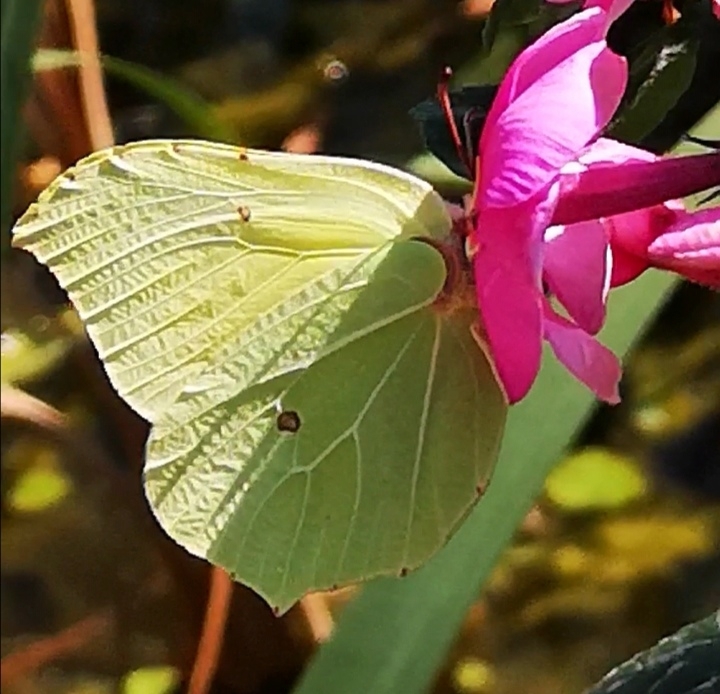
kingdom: Animalia
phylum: Arthropoda
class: Insecta
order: Lepidoptera
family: Pieridae
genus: Gonepteryx
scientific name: Gonepteryx rhamni
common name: Brimstone
